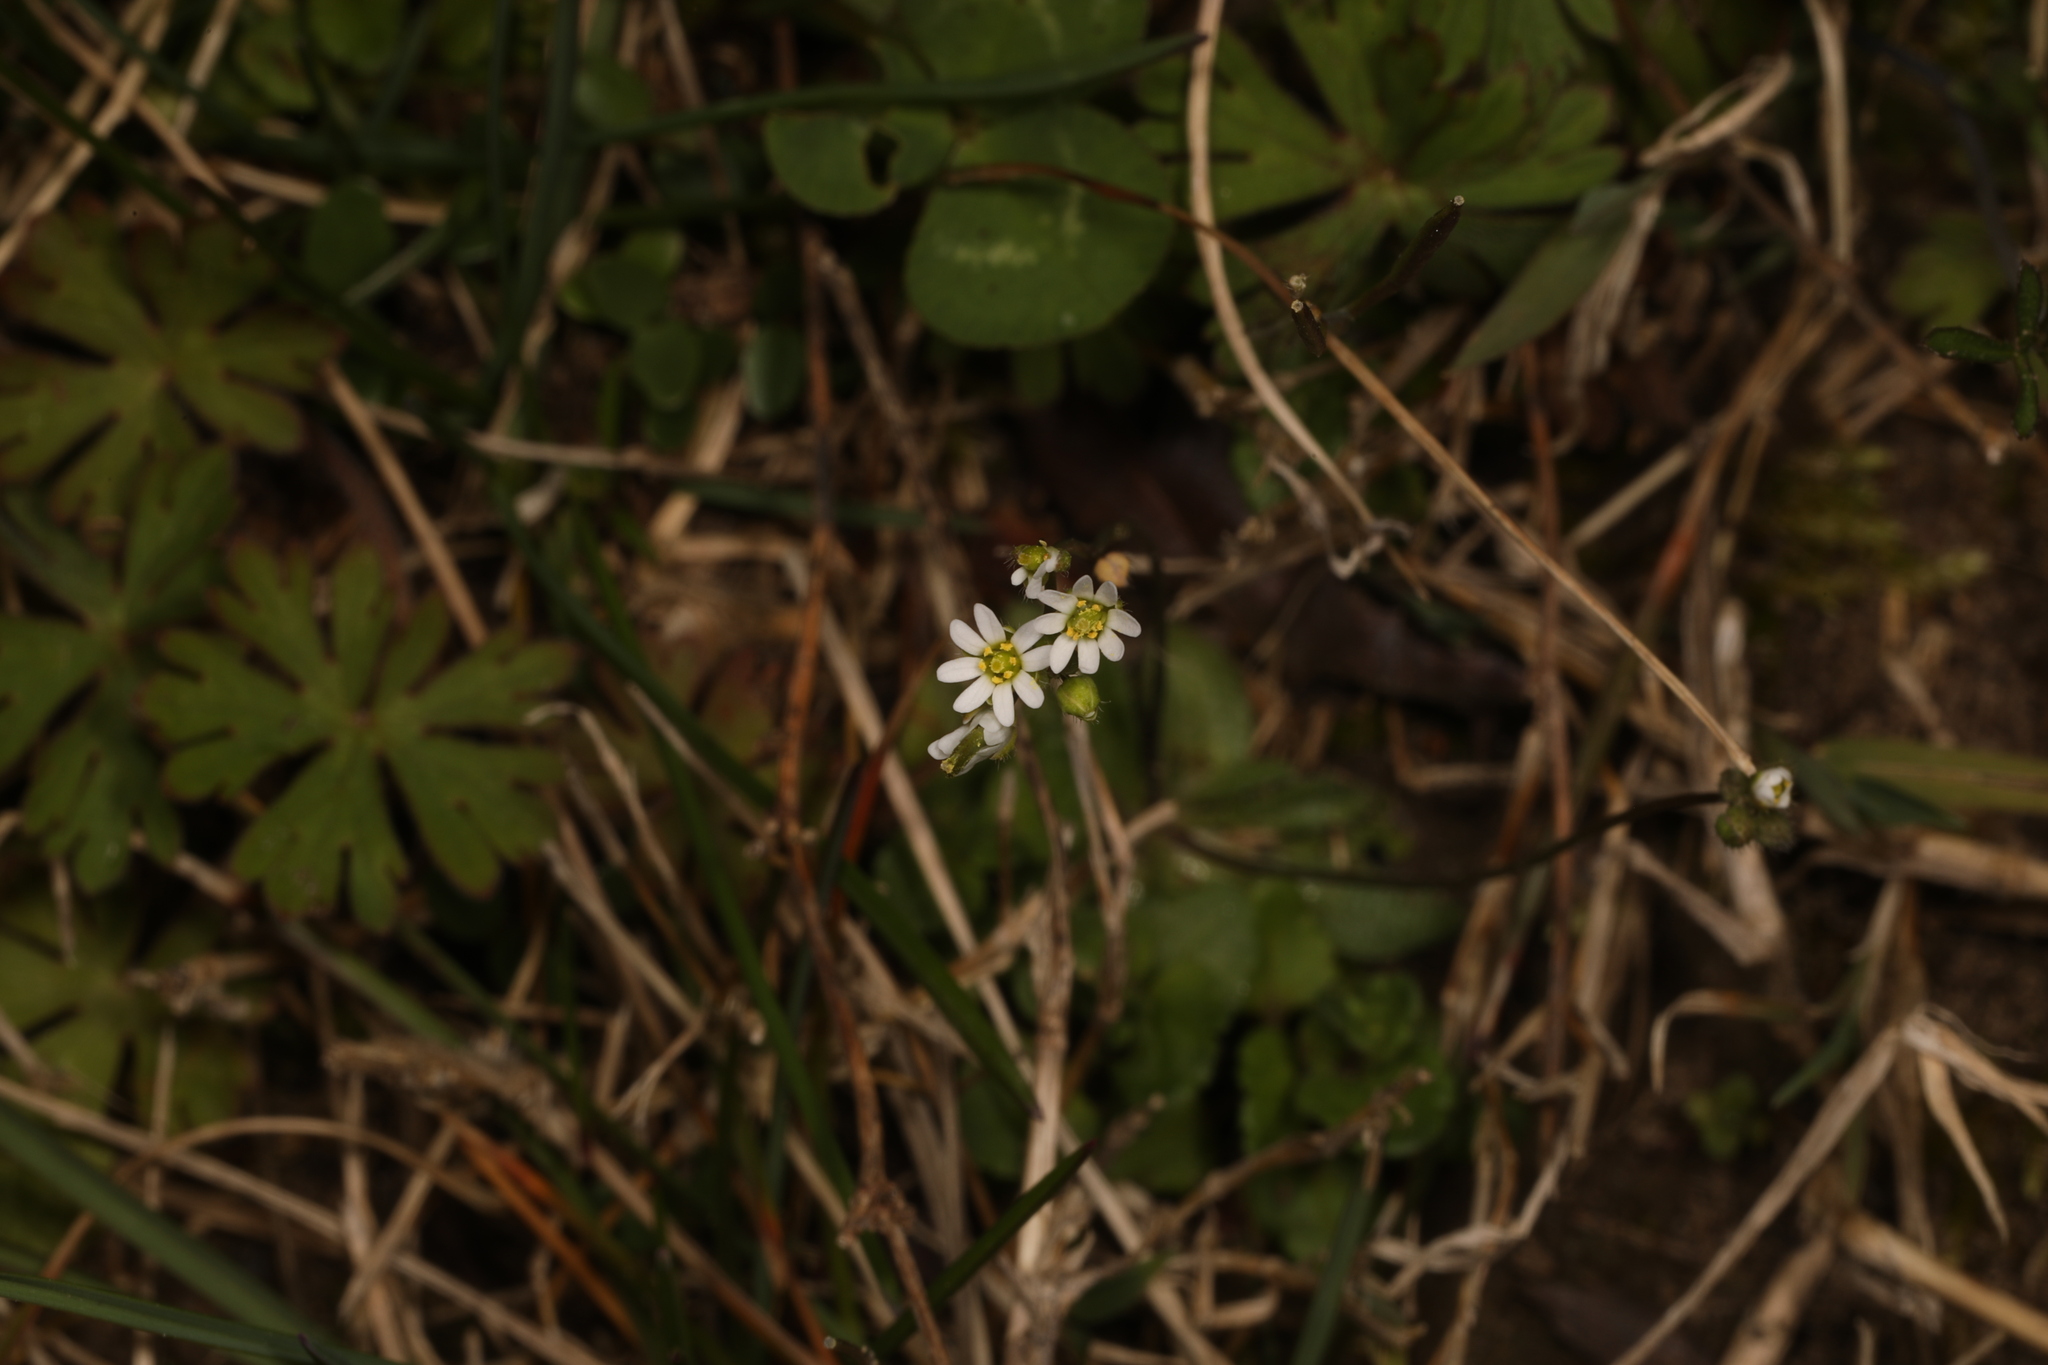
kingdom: Plantae
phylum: Tracheophyta
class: Magnoliopsida
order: Brassicales
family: Brassicaceae
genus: Draba
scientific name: Draba verna
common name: Spring draba
